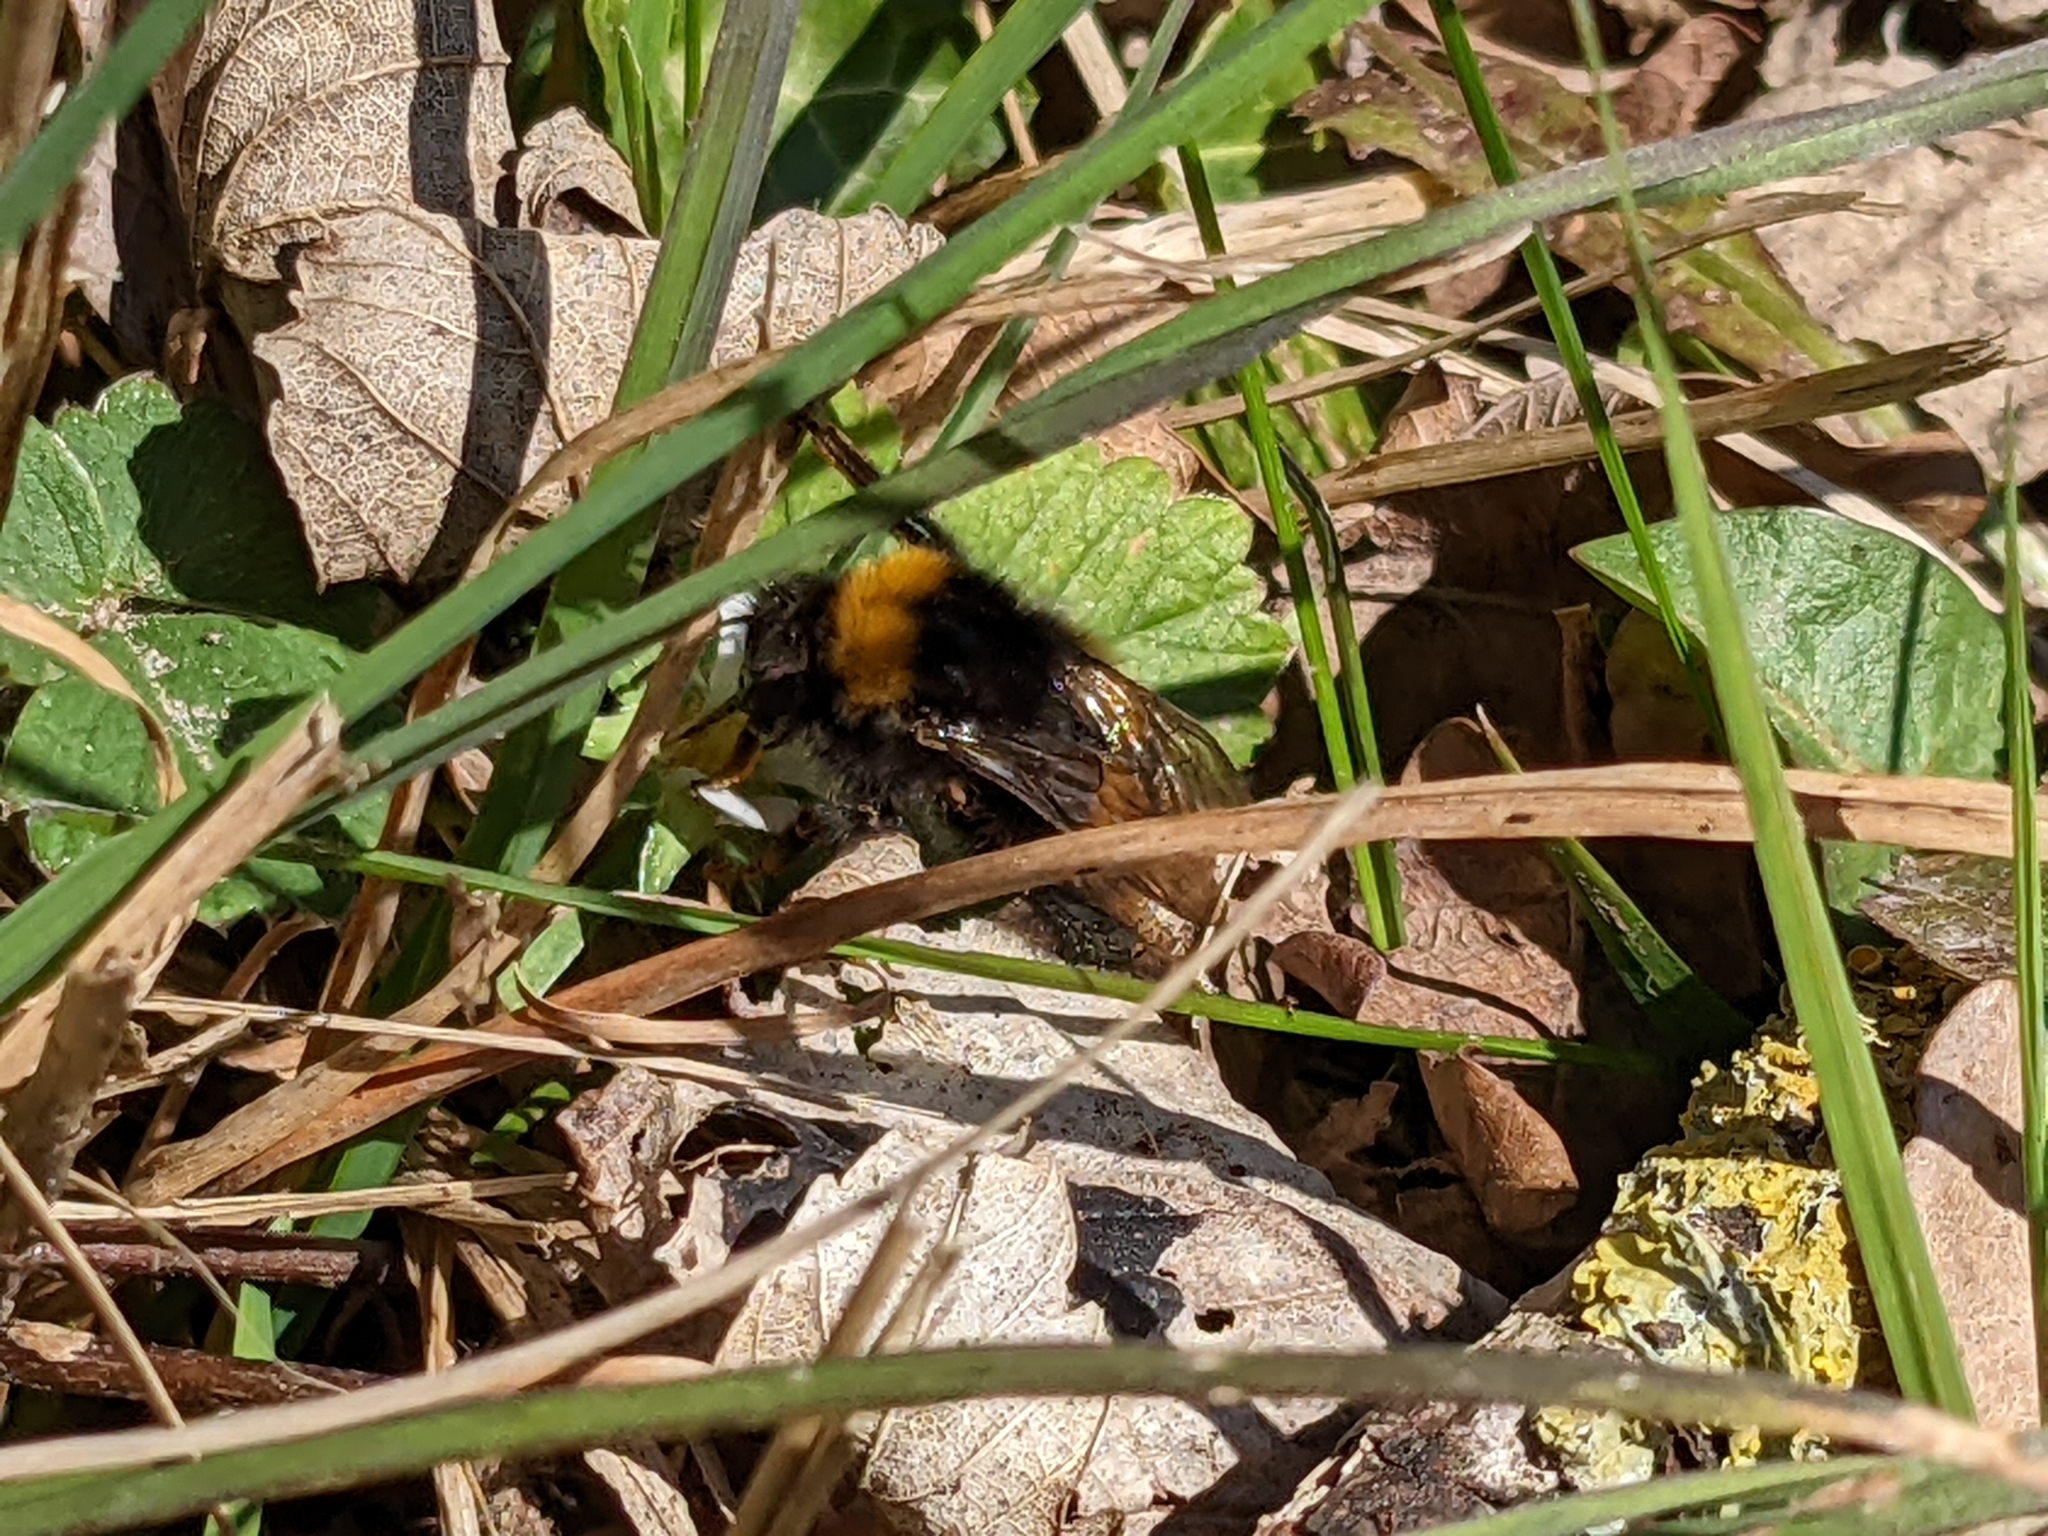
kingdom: Animalia
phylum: Arthropoda
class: Insecta
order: Hymenoptera
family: Apidae
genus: Bombus
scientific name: Bombus pratorum
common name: Early humble-bee
